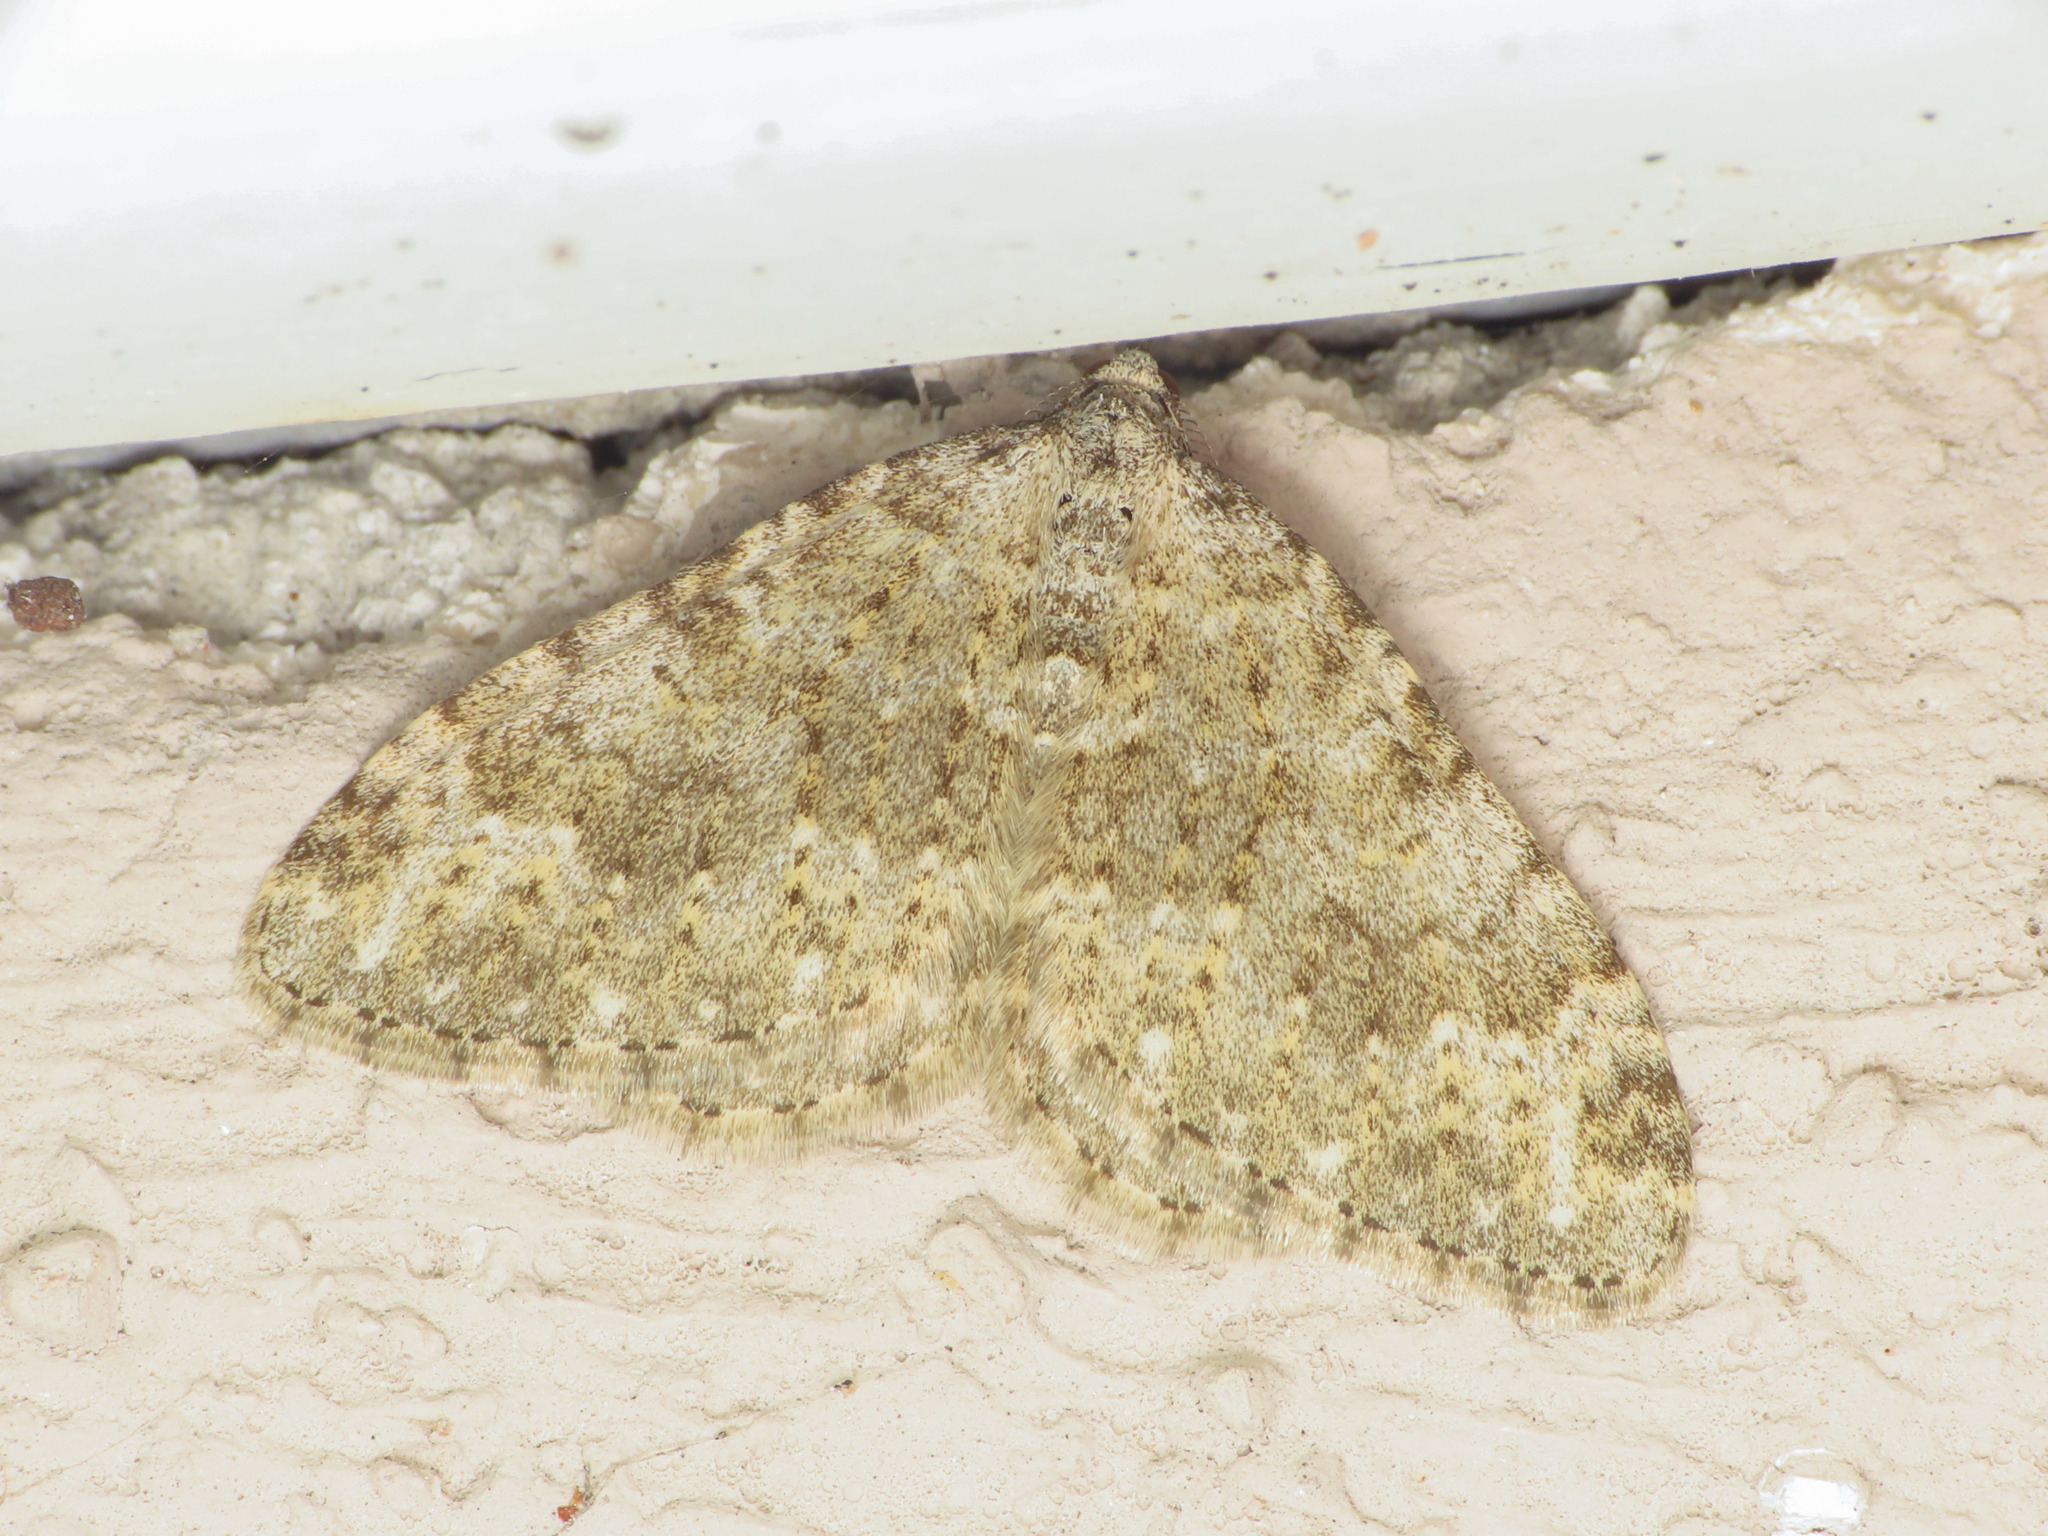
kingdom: Animalia
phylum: Arthropoda
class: Insecta
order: Lepidoptera
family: Geometridae
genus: Nebula
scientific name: Nebula salicata
